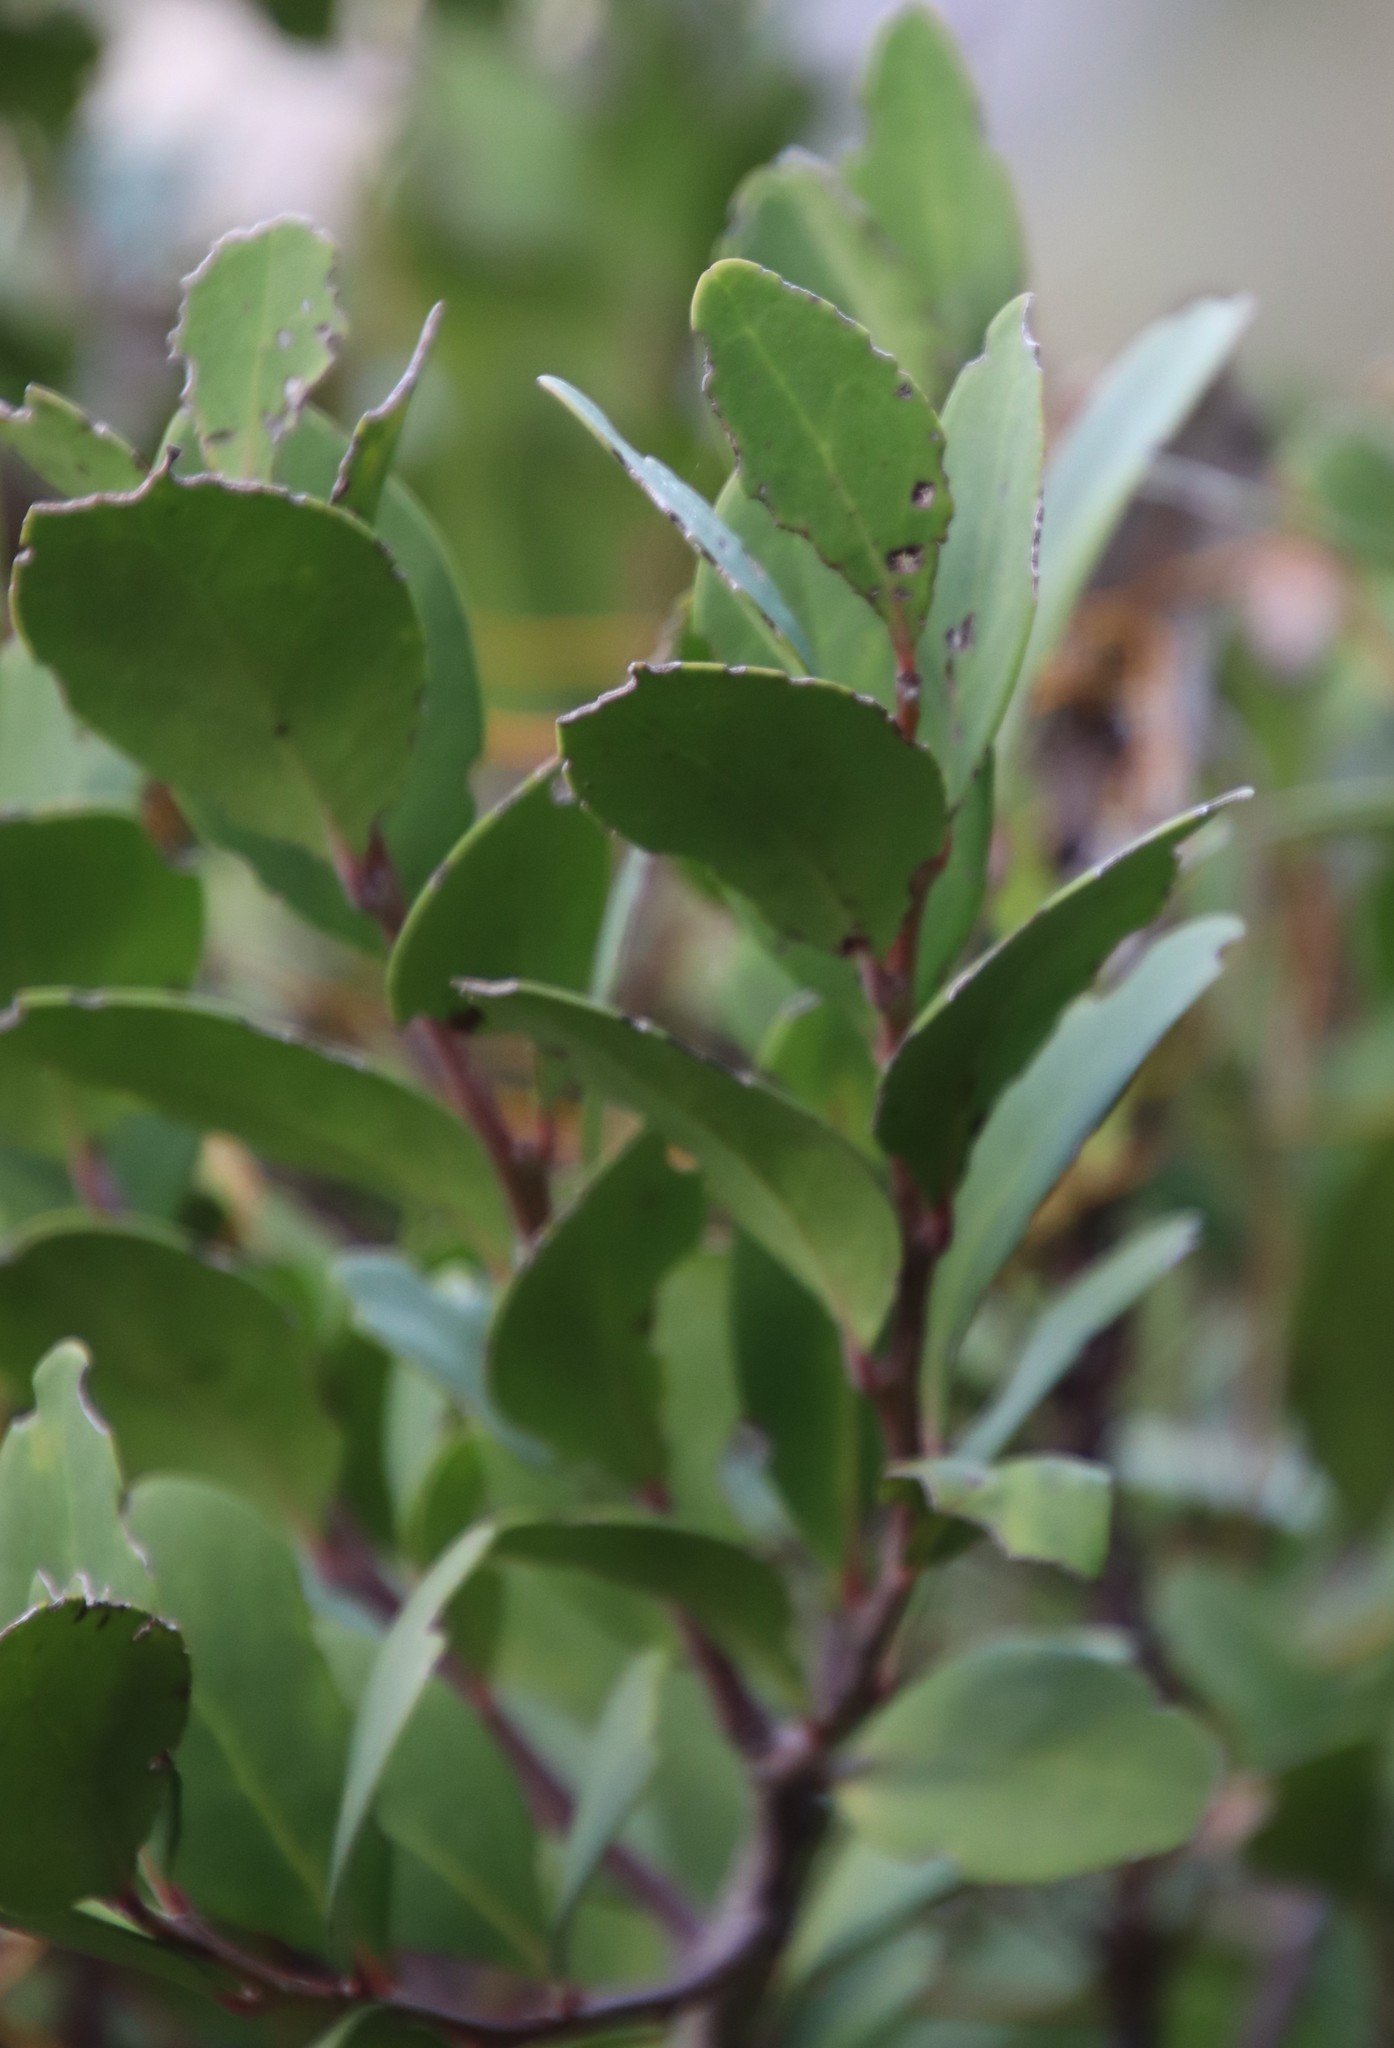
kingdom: Plantae
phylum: Tracheophyta
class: Magnoliopsida
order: Celastrales
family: Celastraceae
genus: Gymnosporia
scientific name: Gymnosporia laurina
